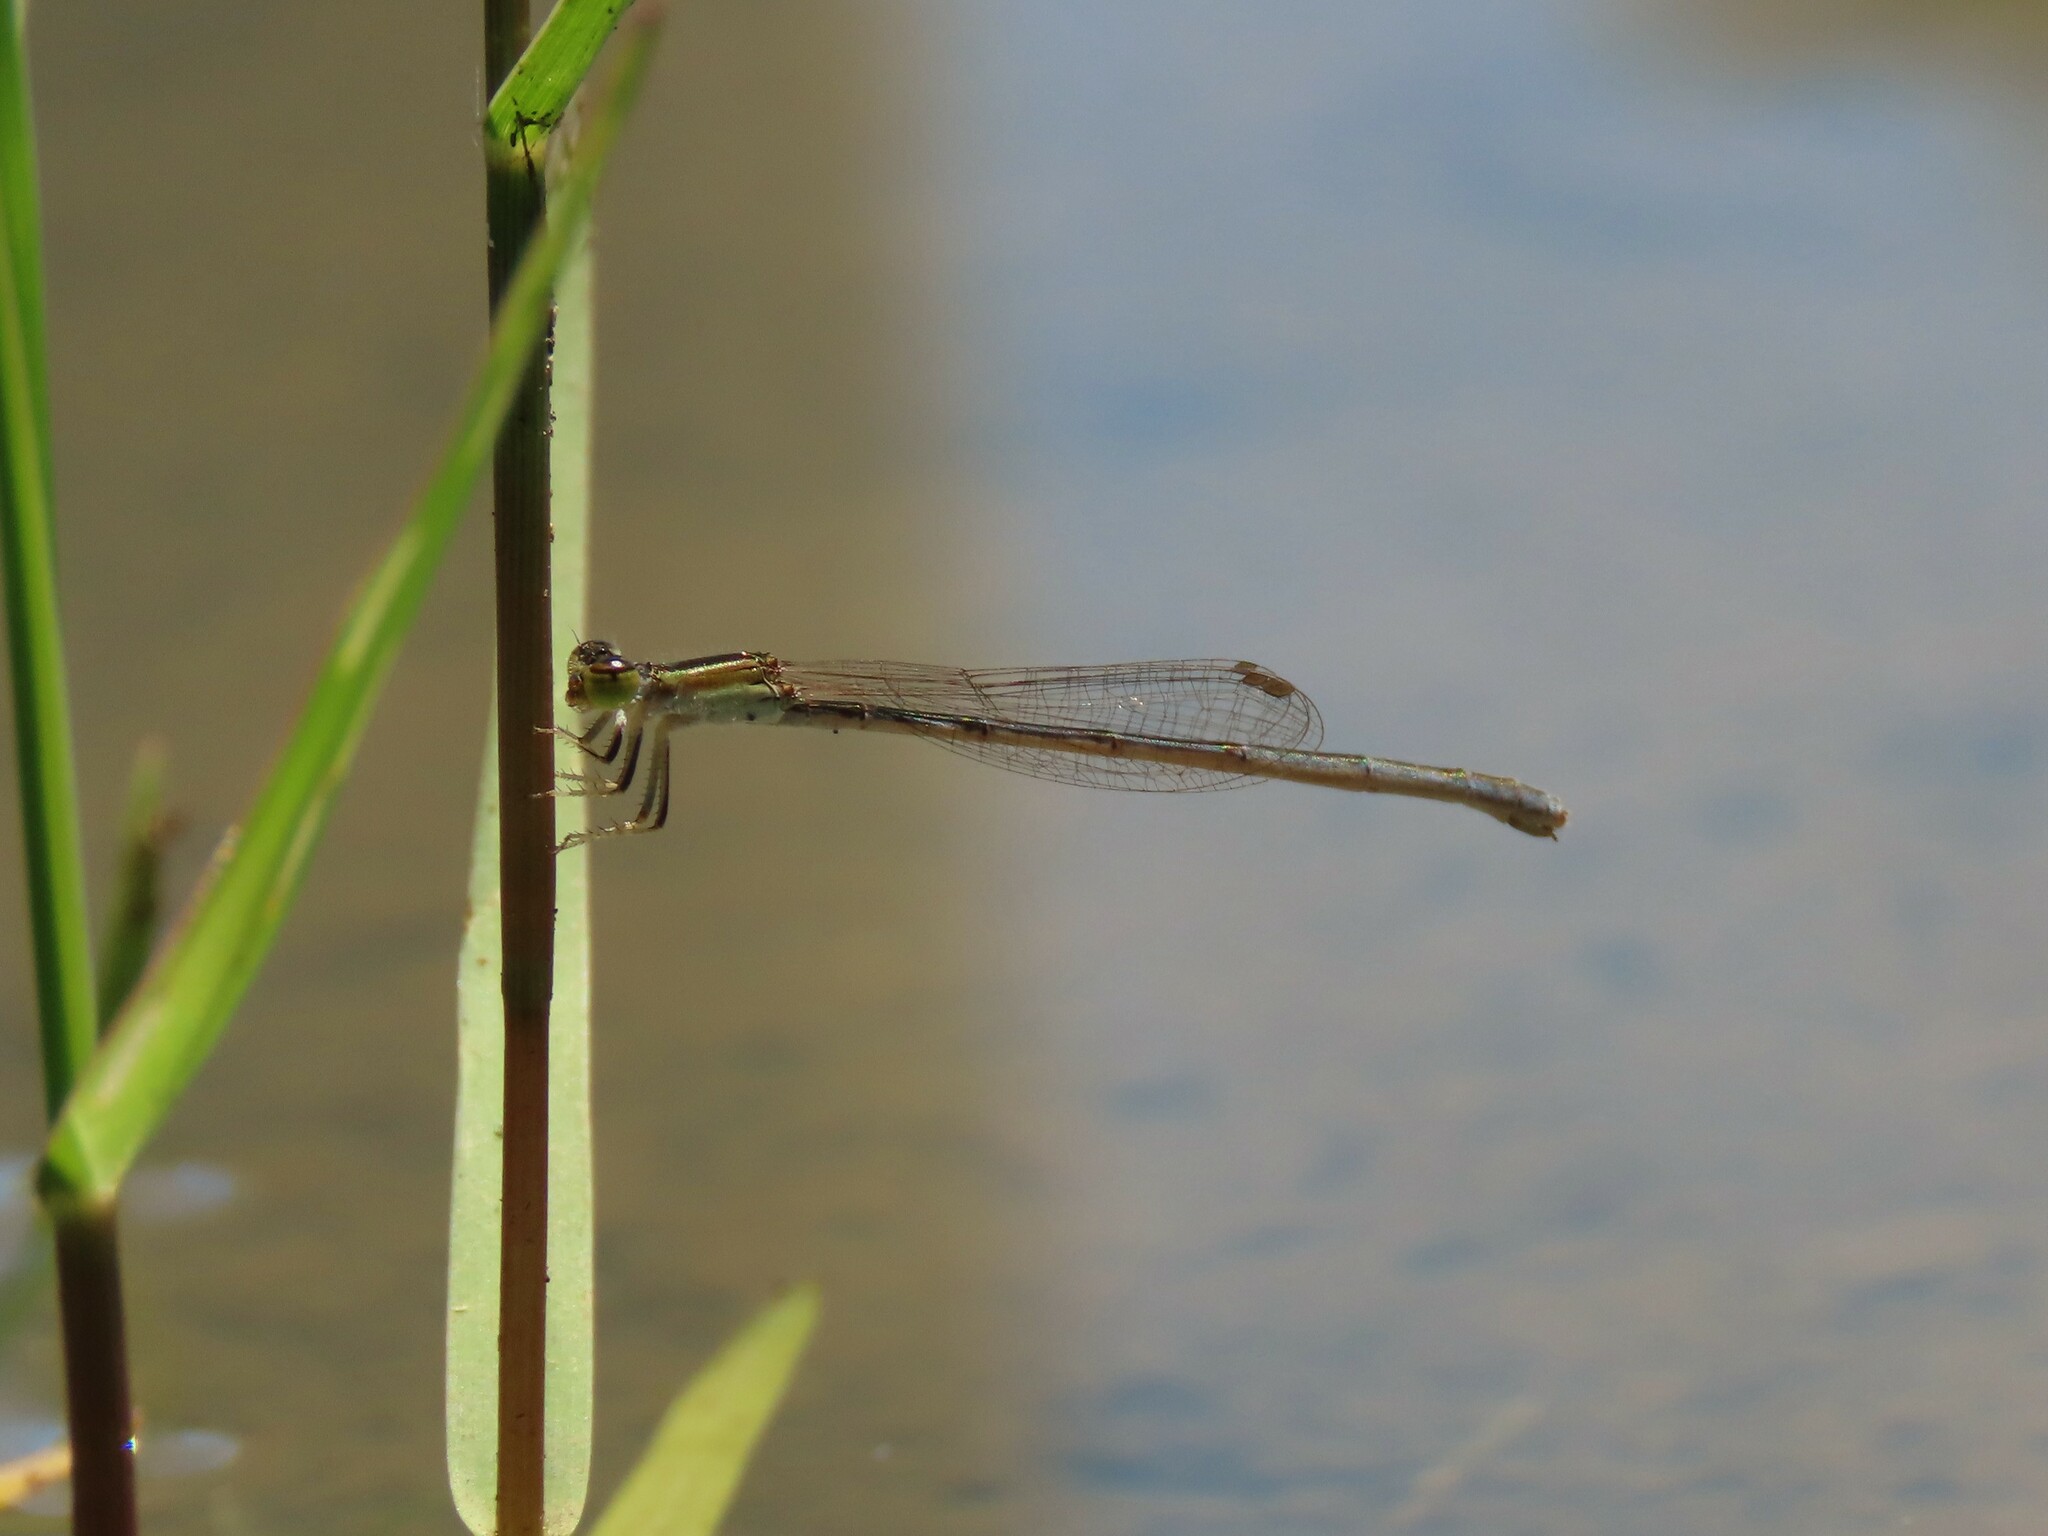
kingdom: Animalia
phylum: Arthropoda
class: Insecta
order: Odonata
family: Coenagrionidae
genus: Ischnura
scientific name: Ischnura hastata
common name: Citrine forktail
